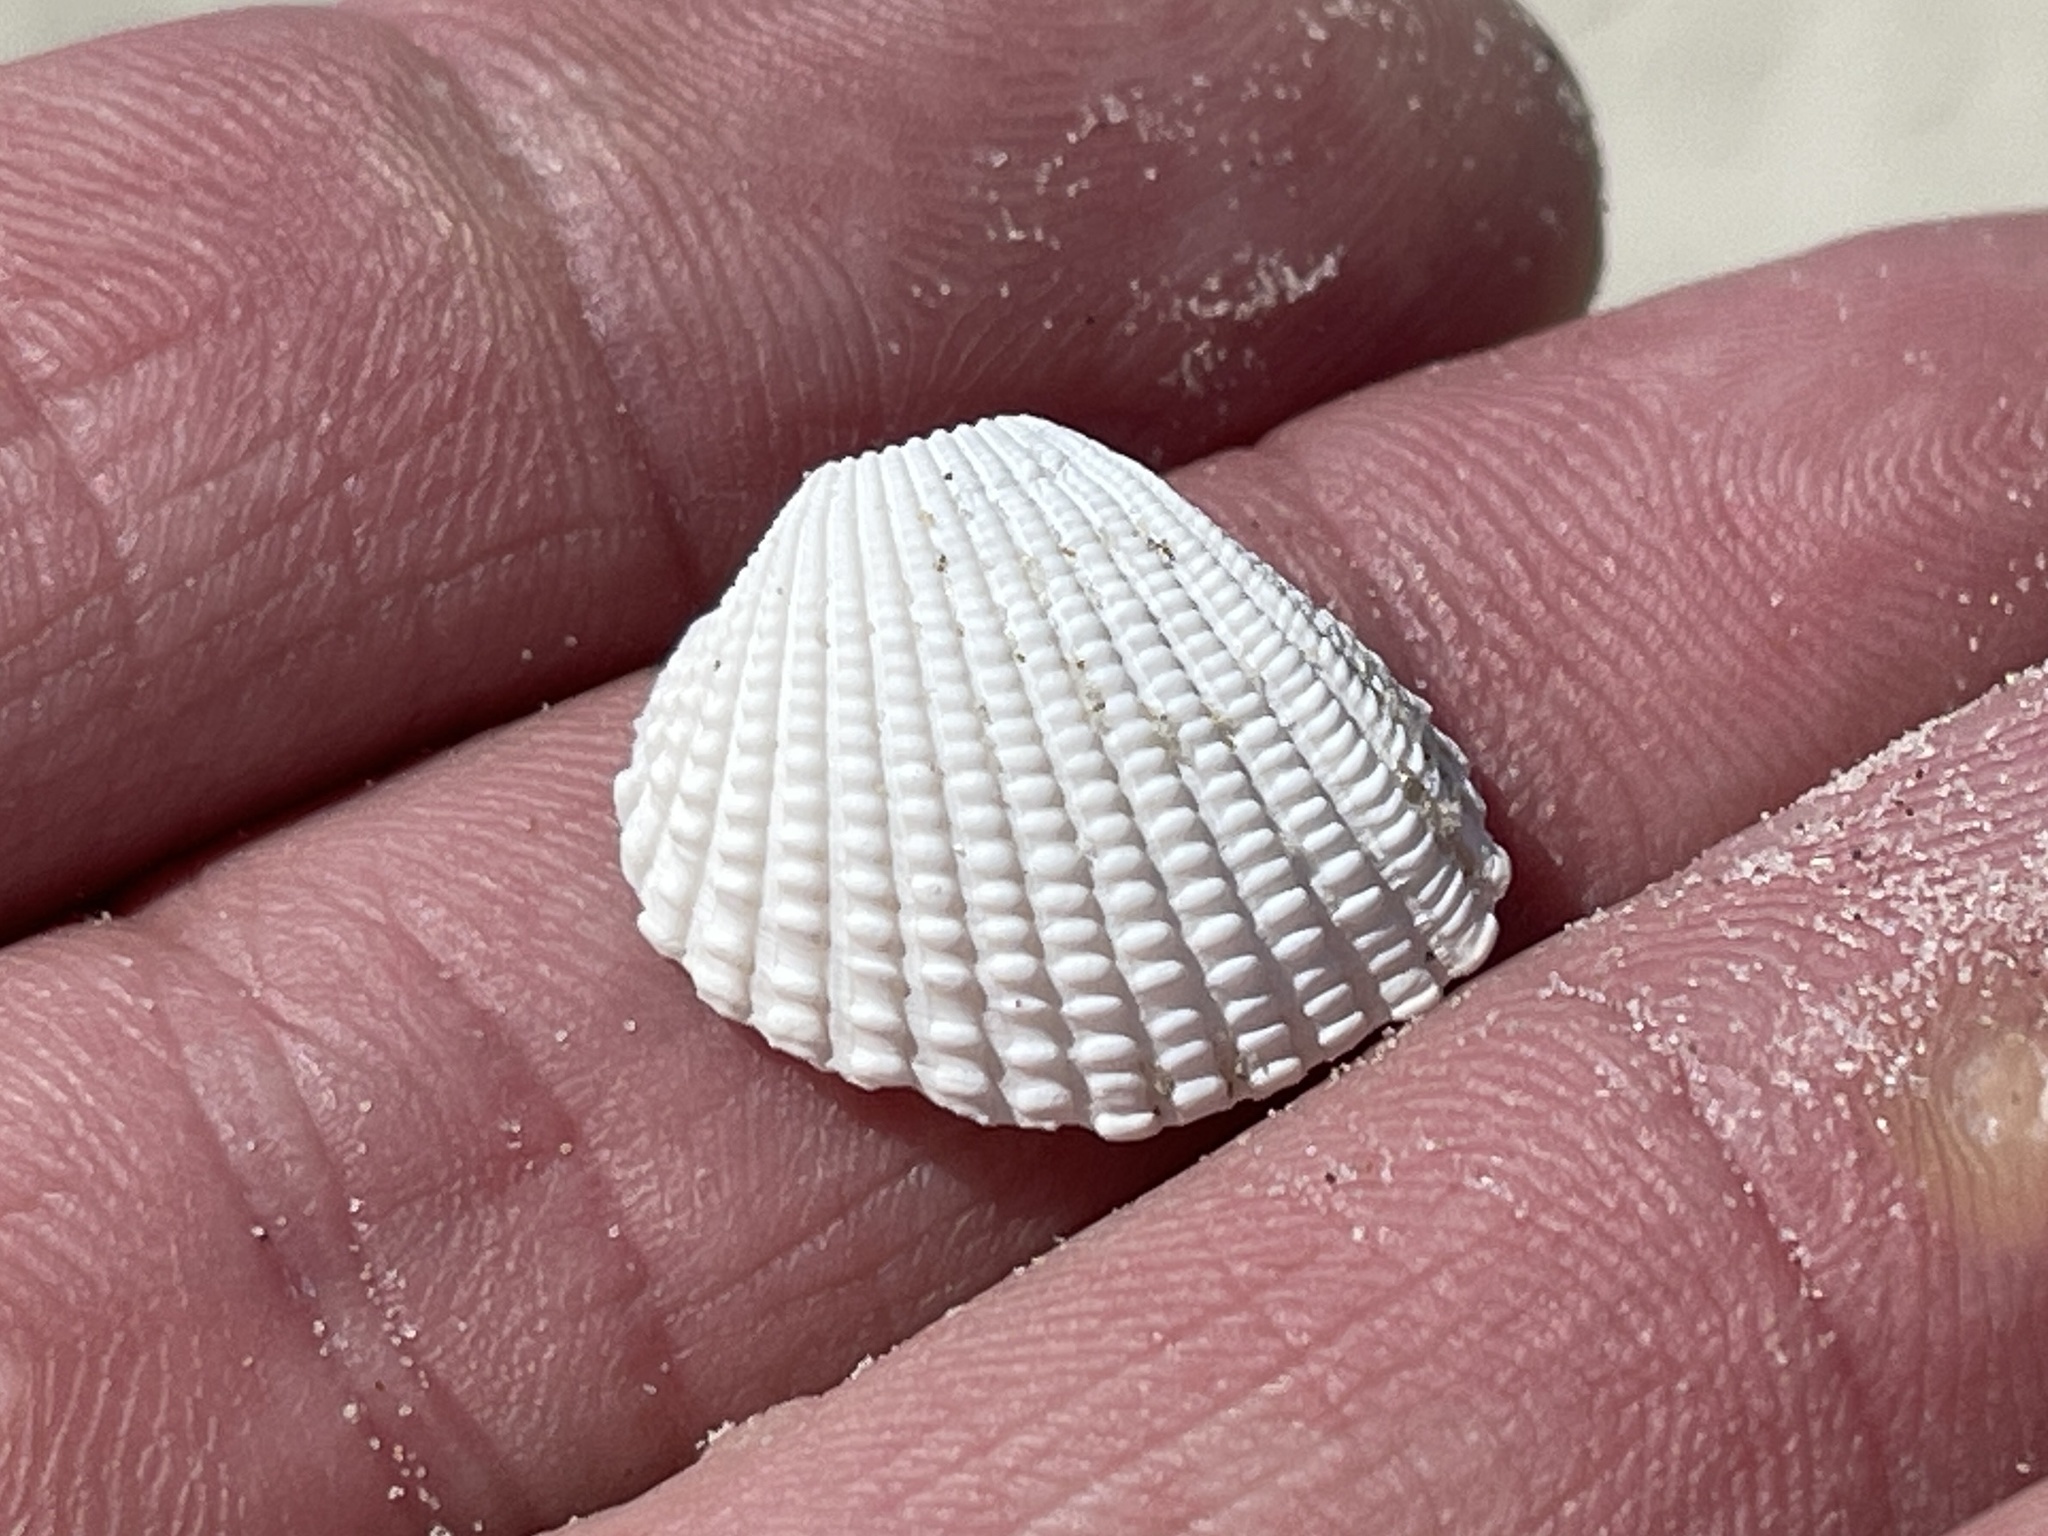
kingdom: Animalia
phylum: Mollusca
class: Bivalvia
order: Arcida
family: Arcidae
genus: Anadara
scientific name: Anadara brasiliana
